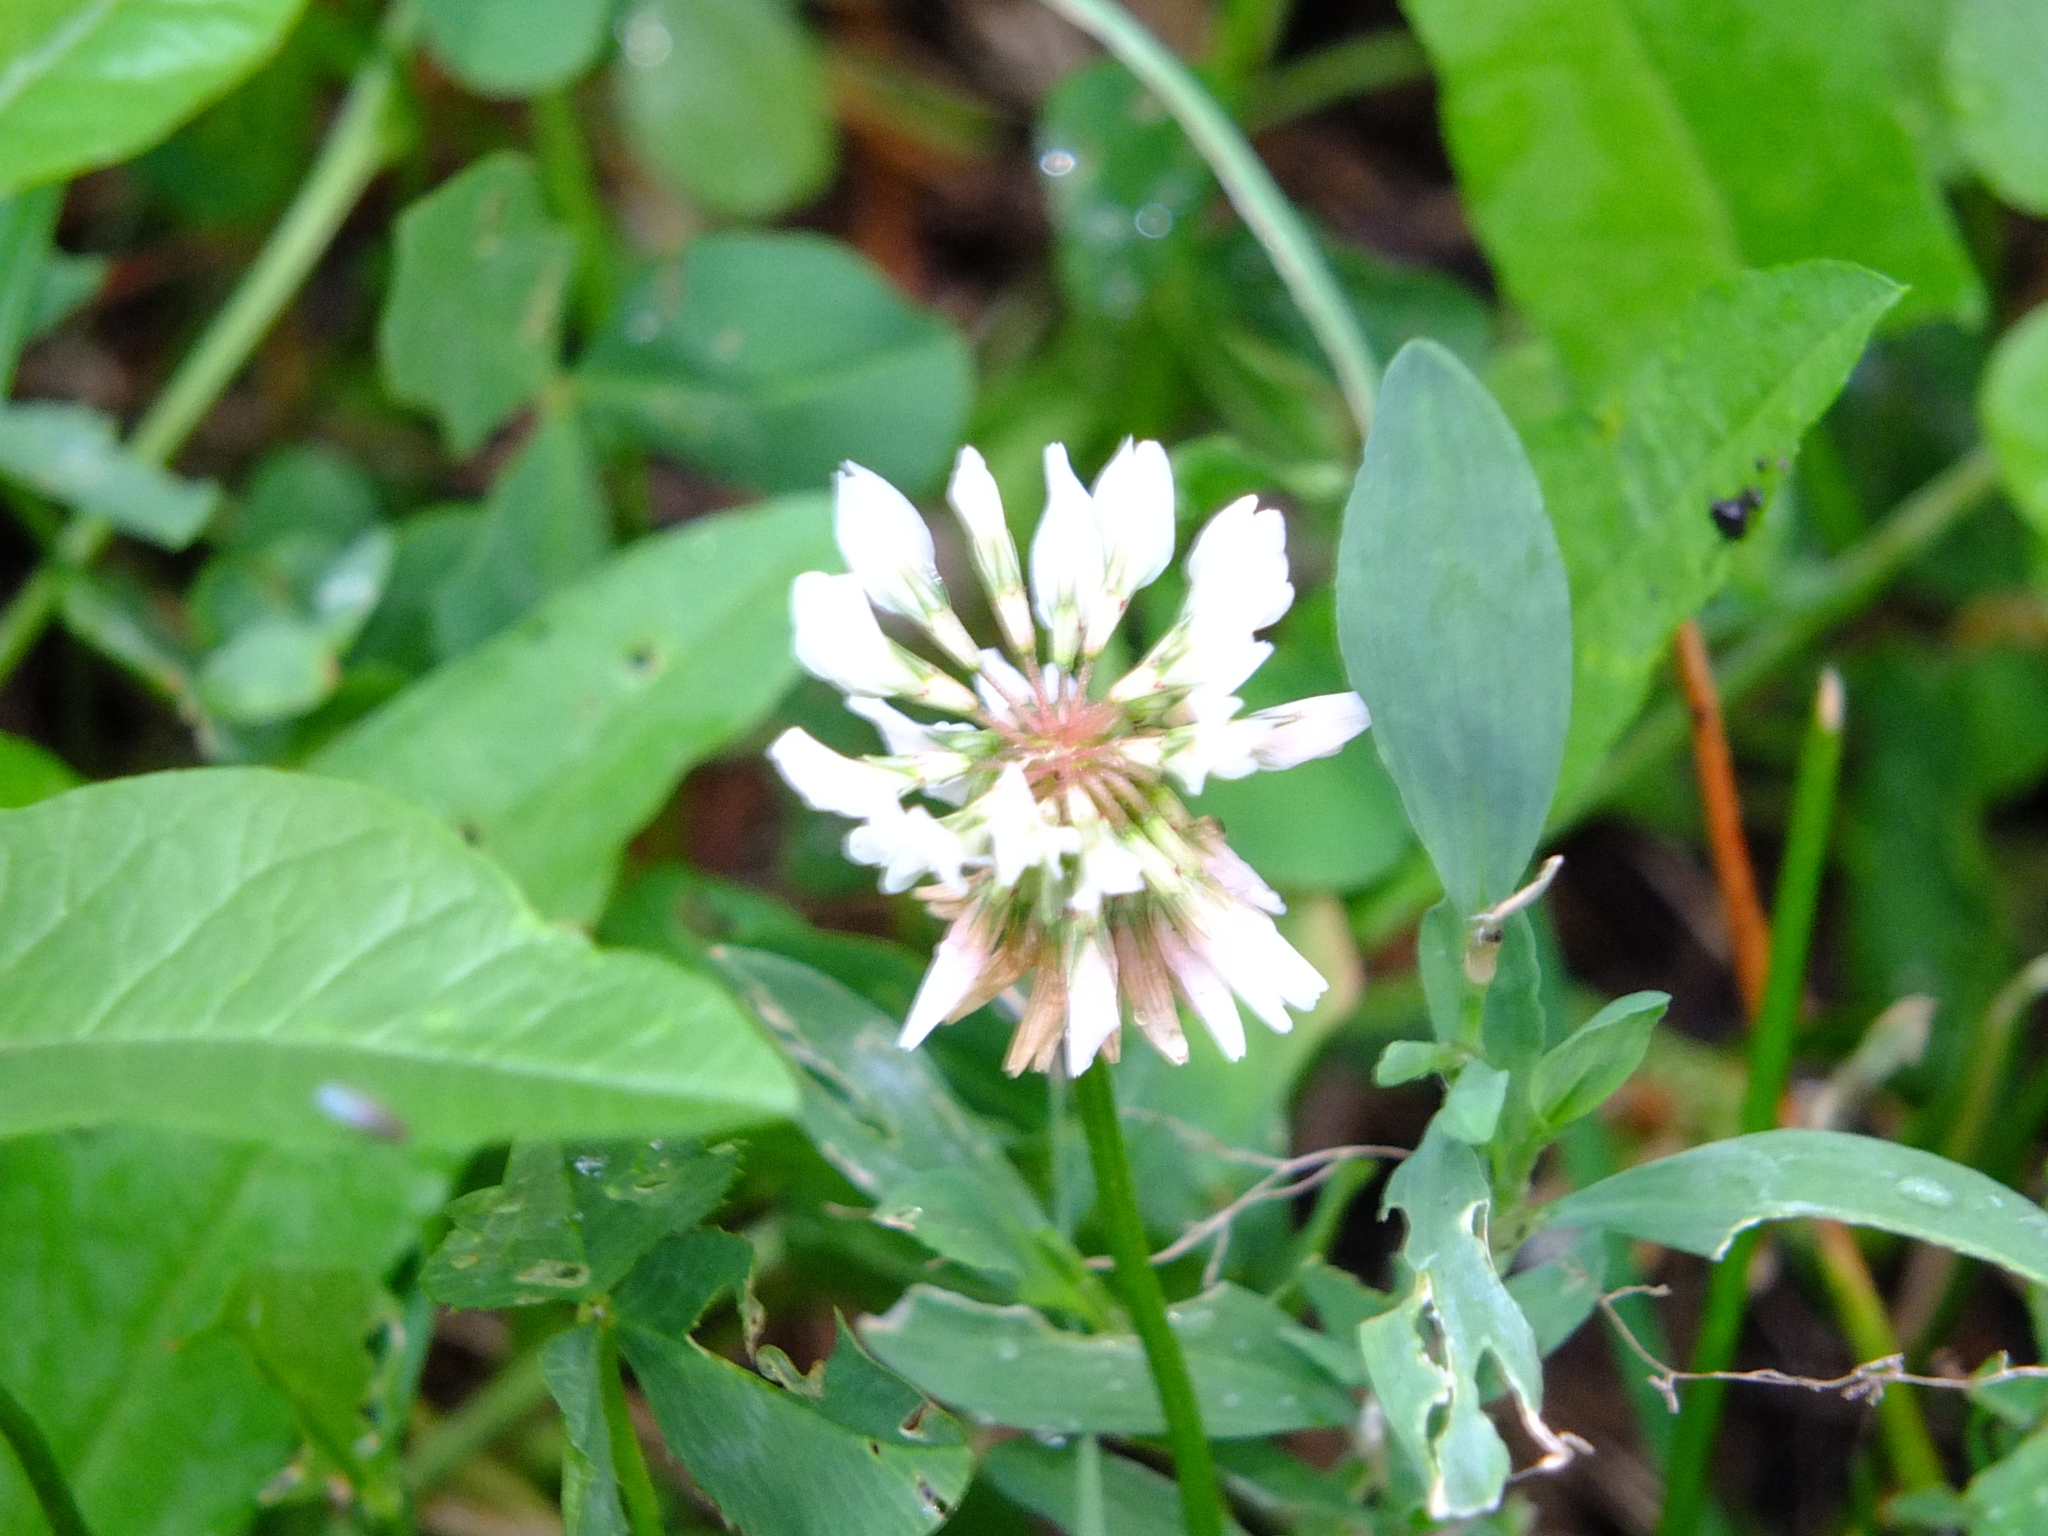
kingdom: Plantae
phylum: Tracheophyta
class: Magnoliopsida
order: Fabales
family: Fabaceae
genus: Trifolium
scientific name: Trifolium repens
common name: White clover
